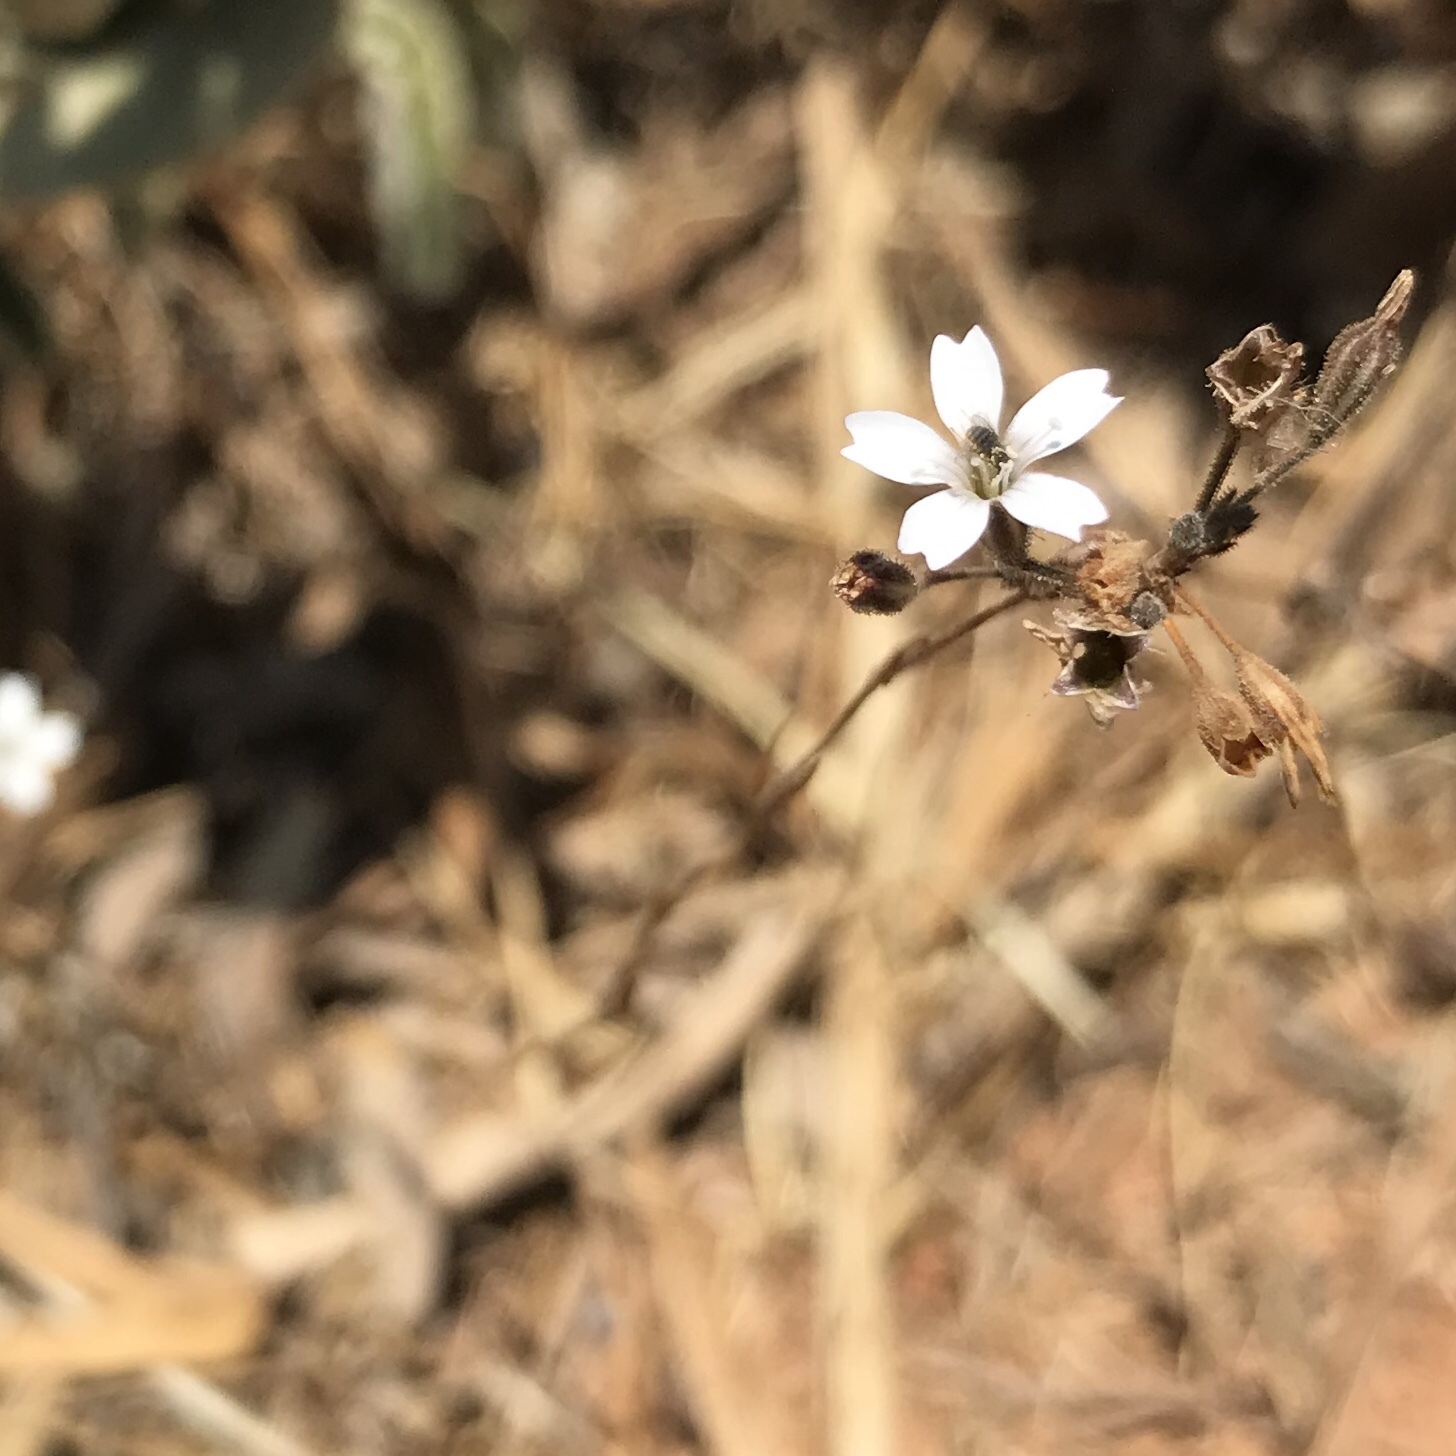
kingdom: Plantae
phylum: Tracheophyta
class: Magnoliopsida
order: Caryophyllales
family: Caryophyllaceae
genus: Dianthus
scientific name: Dianthus candicus
